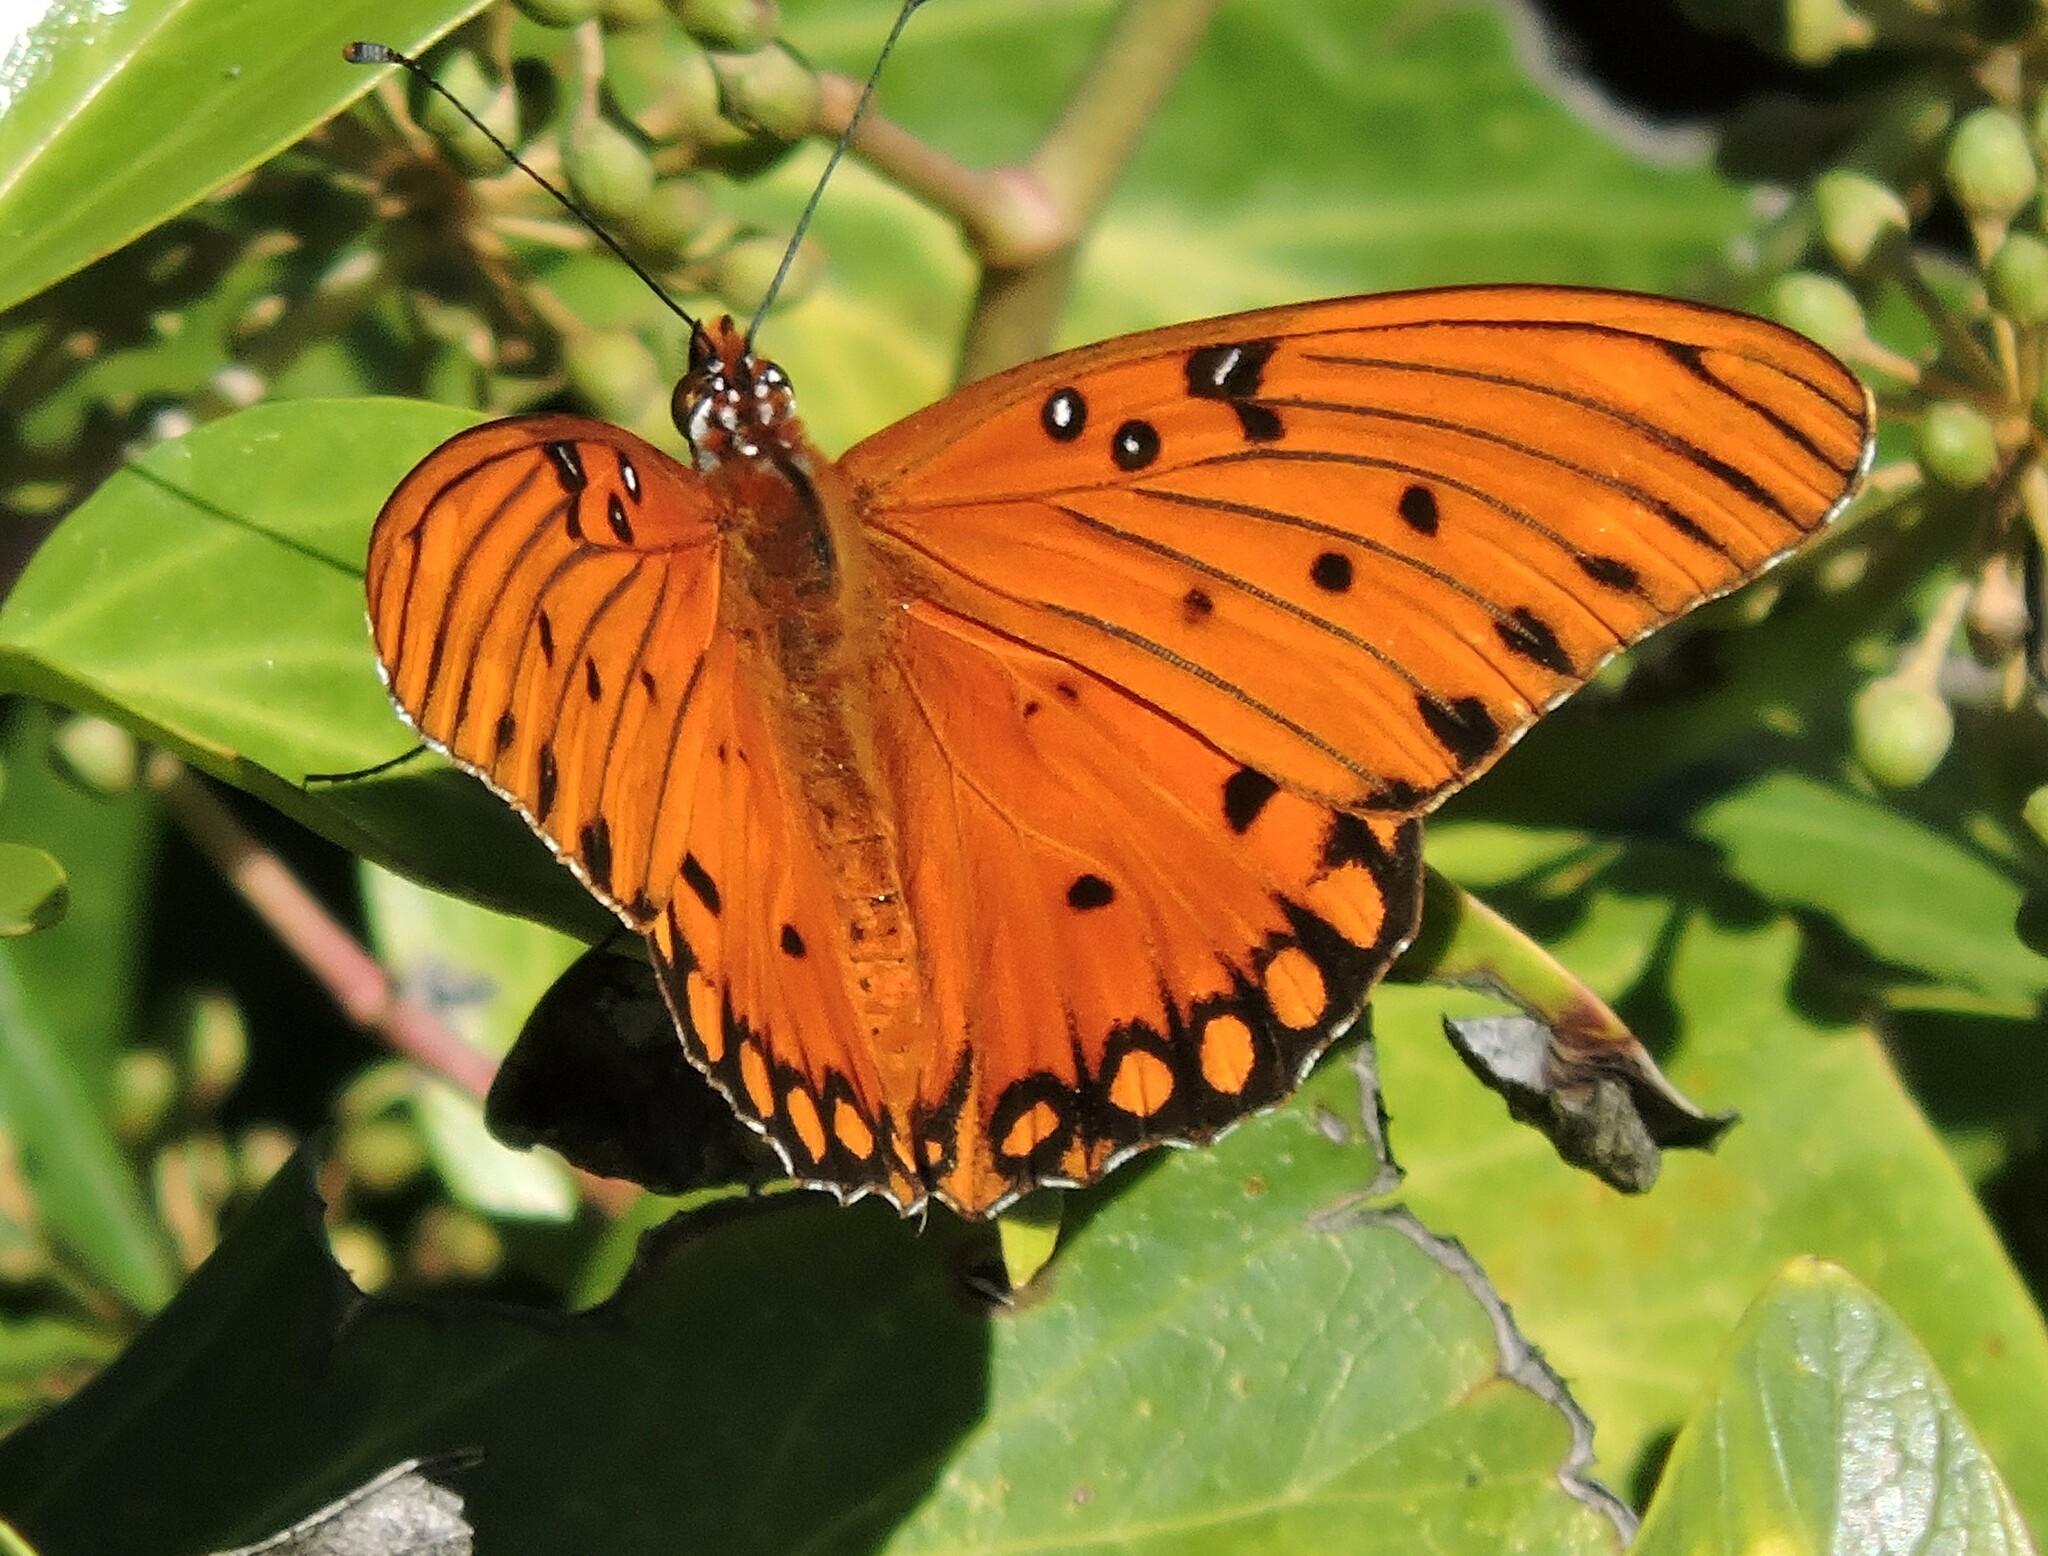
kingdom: Animalia
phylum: Arthropoda
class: Insecta
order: Lepidoptera
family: Nymphalidae
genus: Dione
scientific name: Dione vanillae
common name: Gulf fritillary
